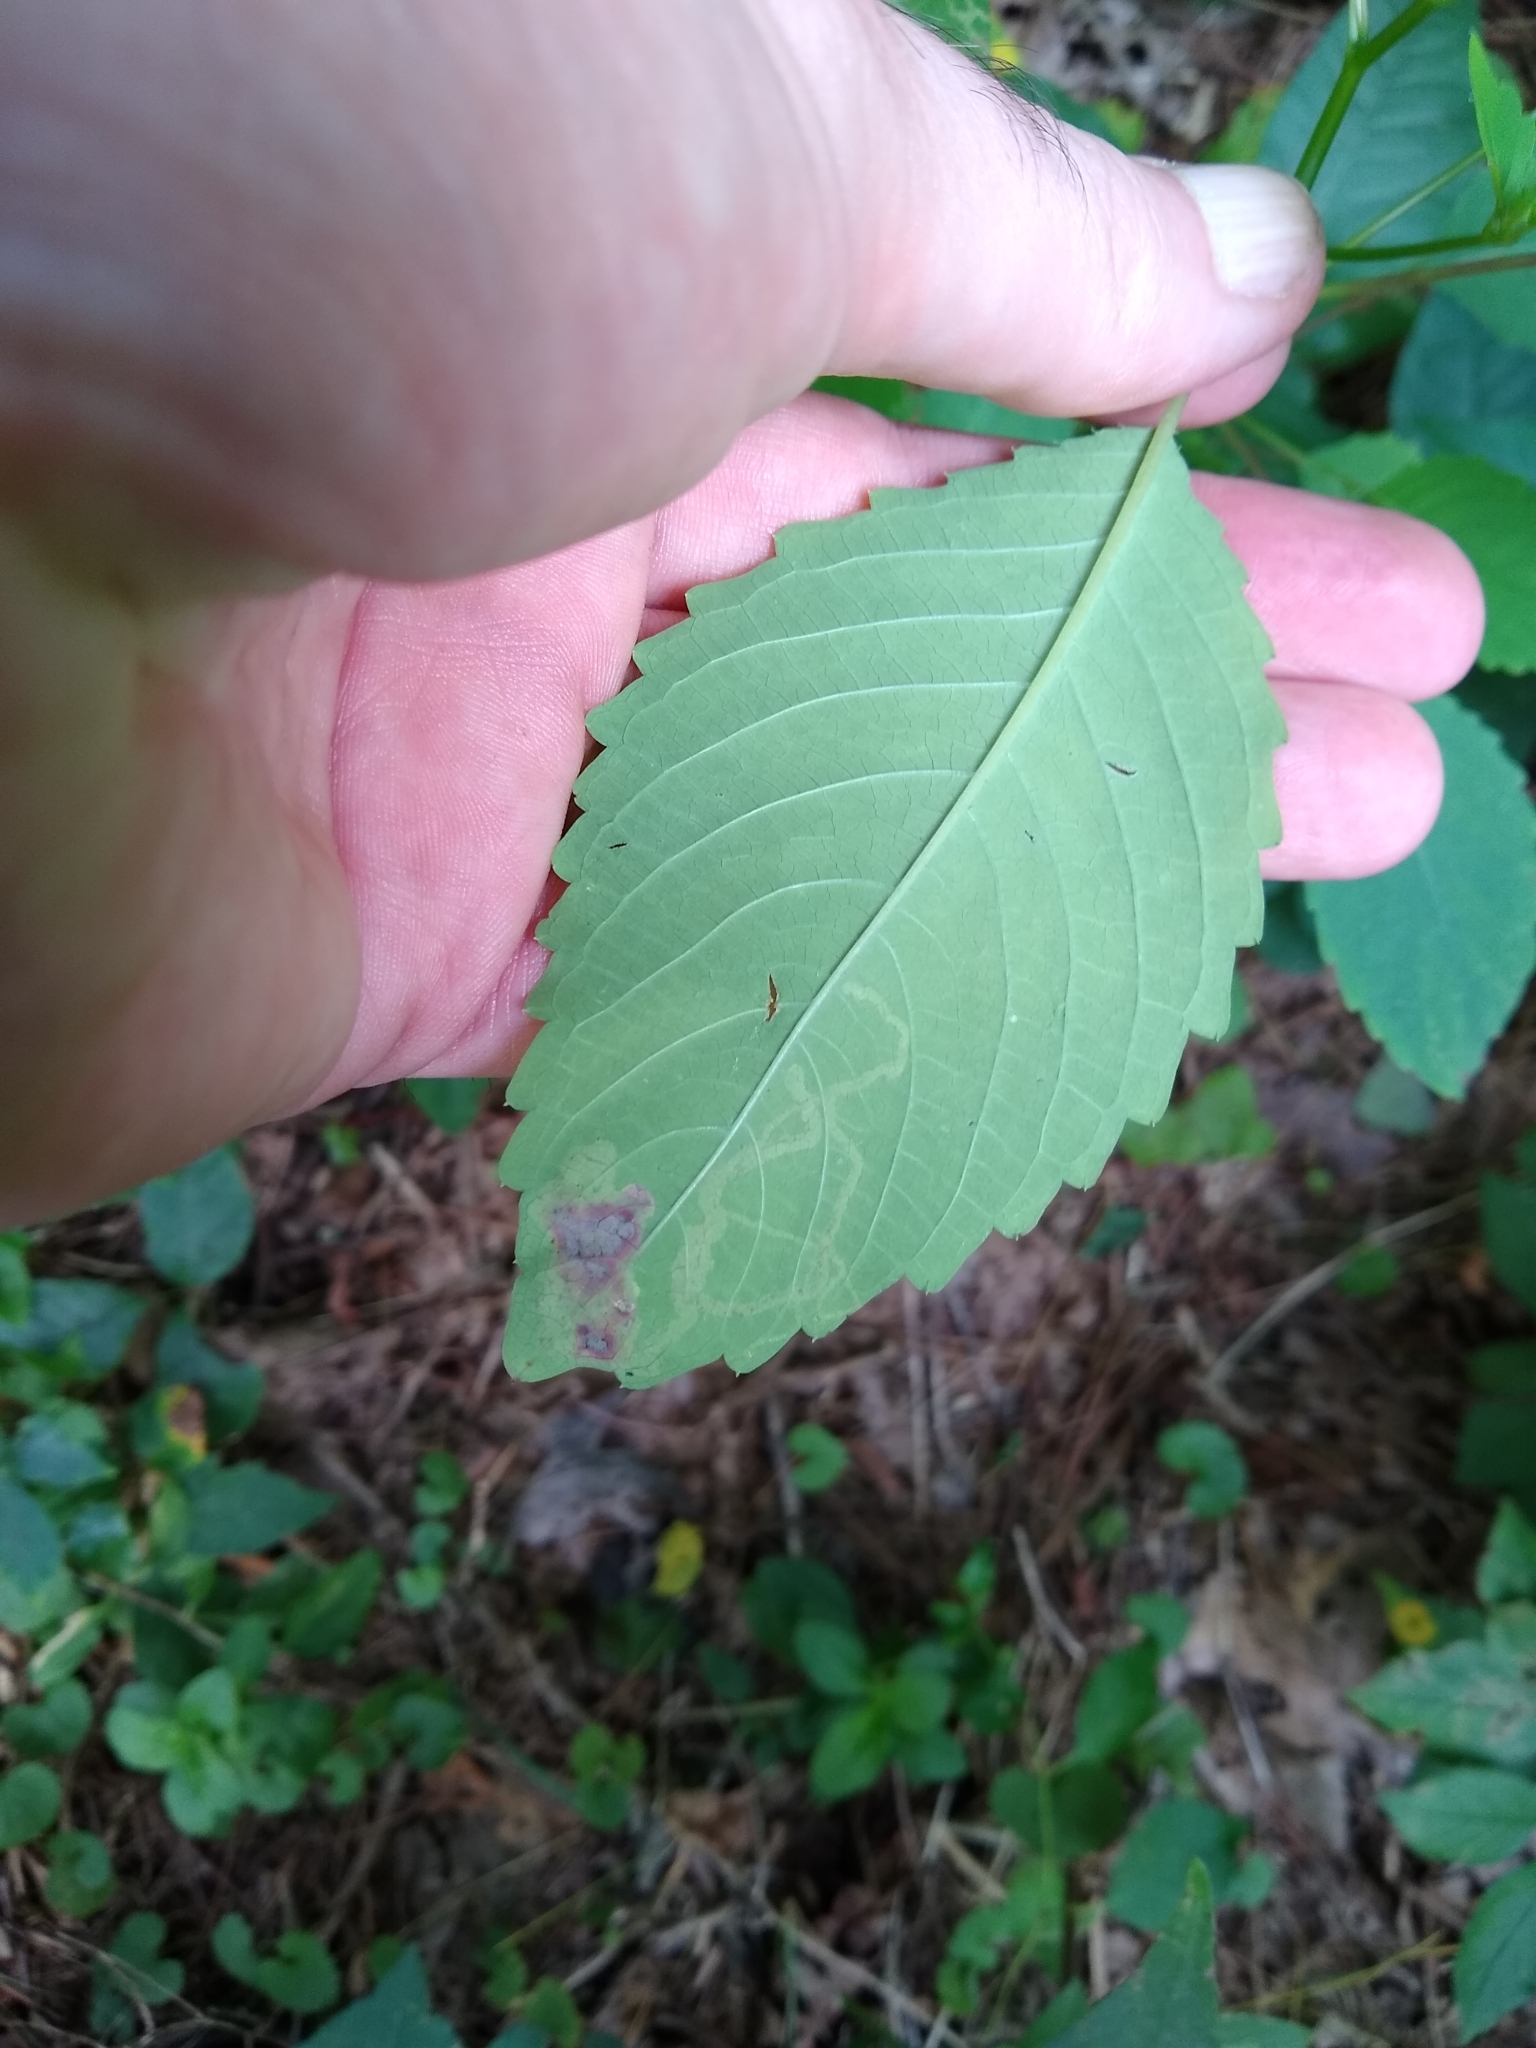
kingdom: Animalia
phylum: Arthropoda
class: Insecta
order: Diptera
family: Agromyzidae
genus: Phytoliriomyza
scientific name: Phytoliriomyza melampyga
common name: Jewelweed leaf-miner fly
